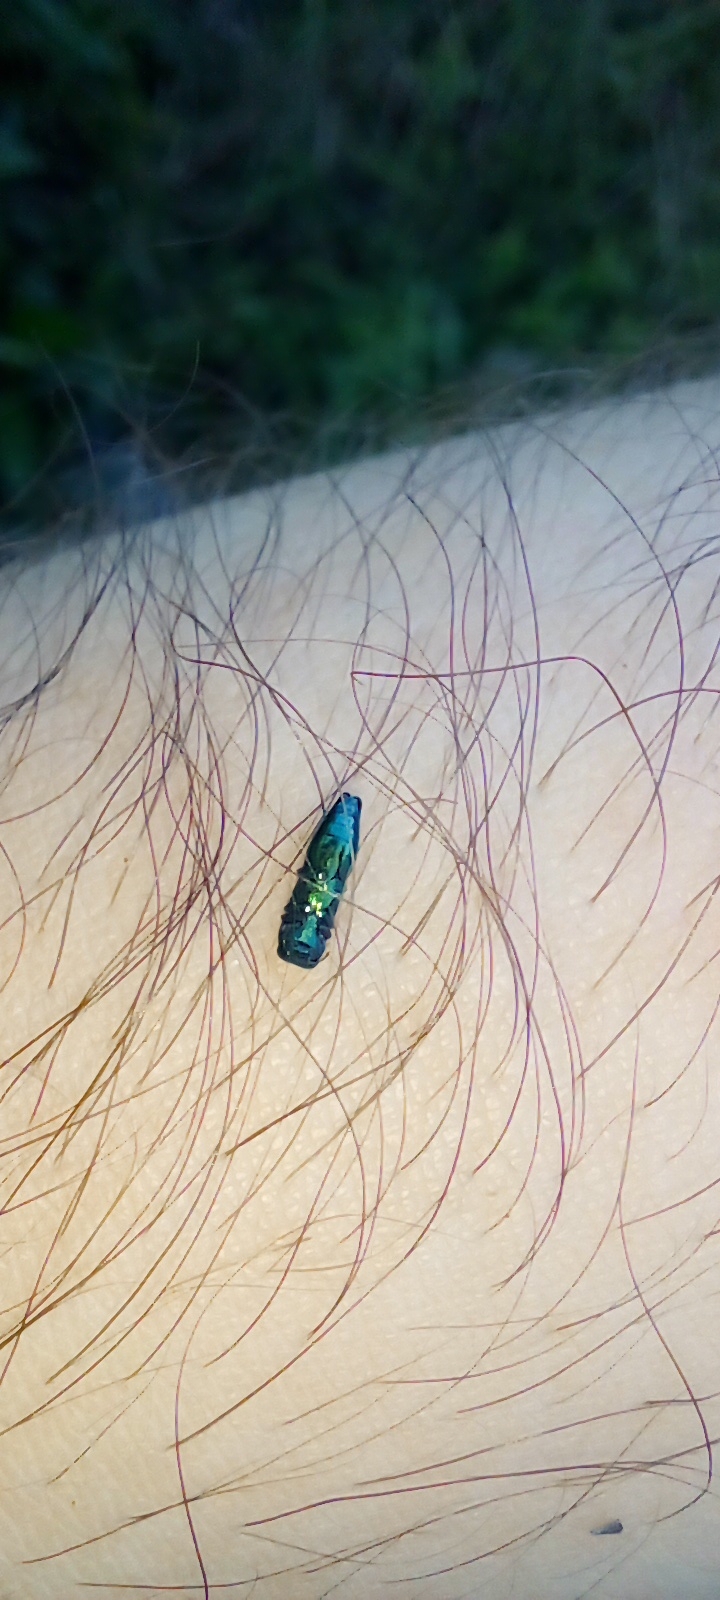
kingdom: Animalia
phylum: Arthropoda
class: Insecta
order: Coleoptera
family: Buprestidae
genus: Agrilaxia
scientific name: Agrilaxia decipiens
